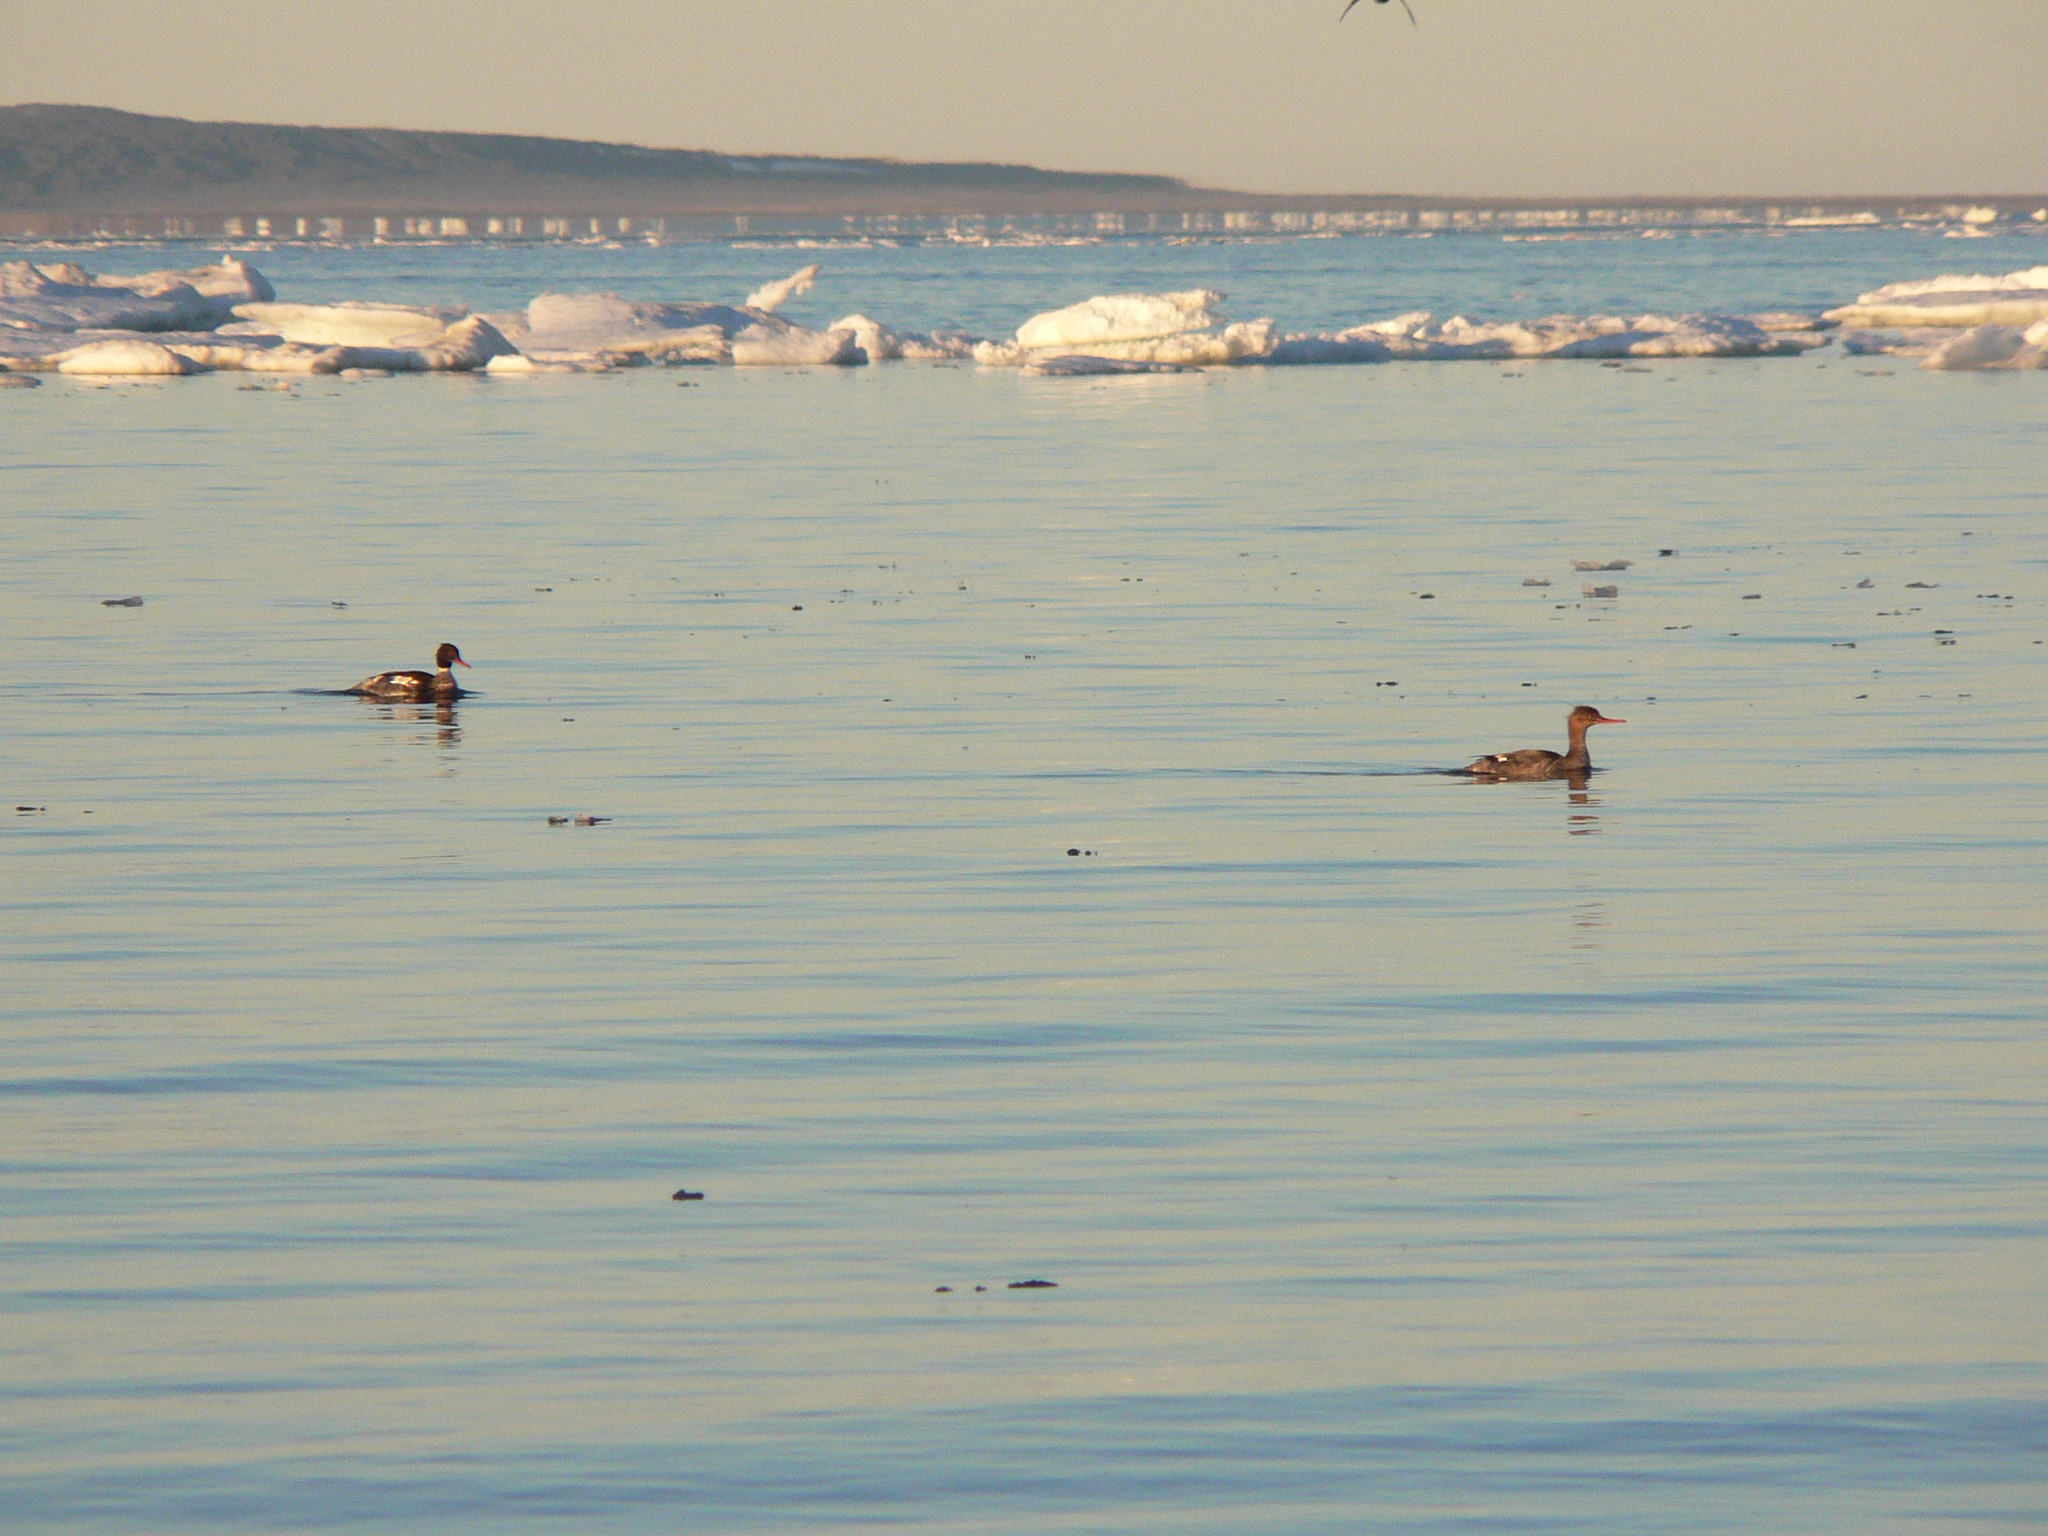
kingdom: Animalia
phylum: Chordata
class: Aves
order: Anseriformes
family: Anatidae
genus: Mergus
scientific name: Mergus serrator
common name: Red-breasted merganser
